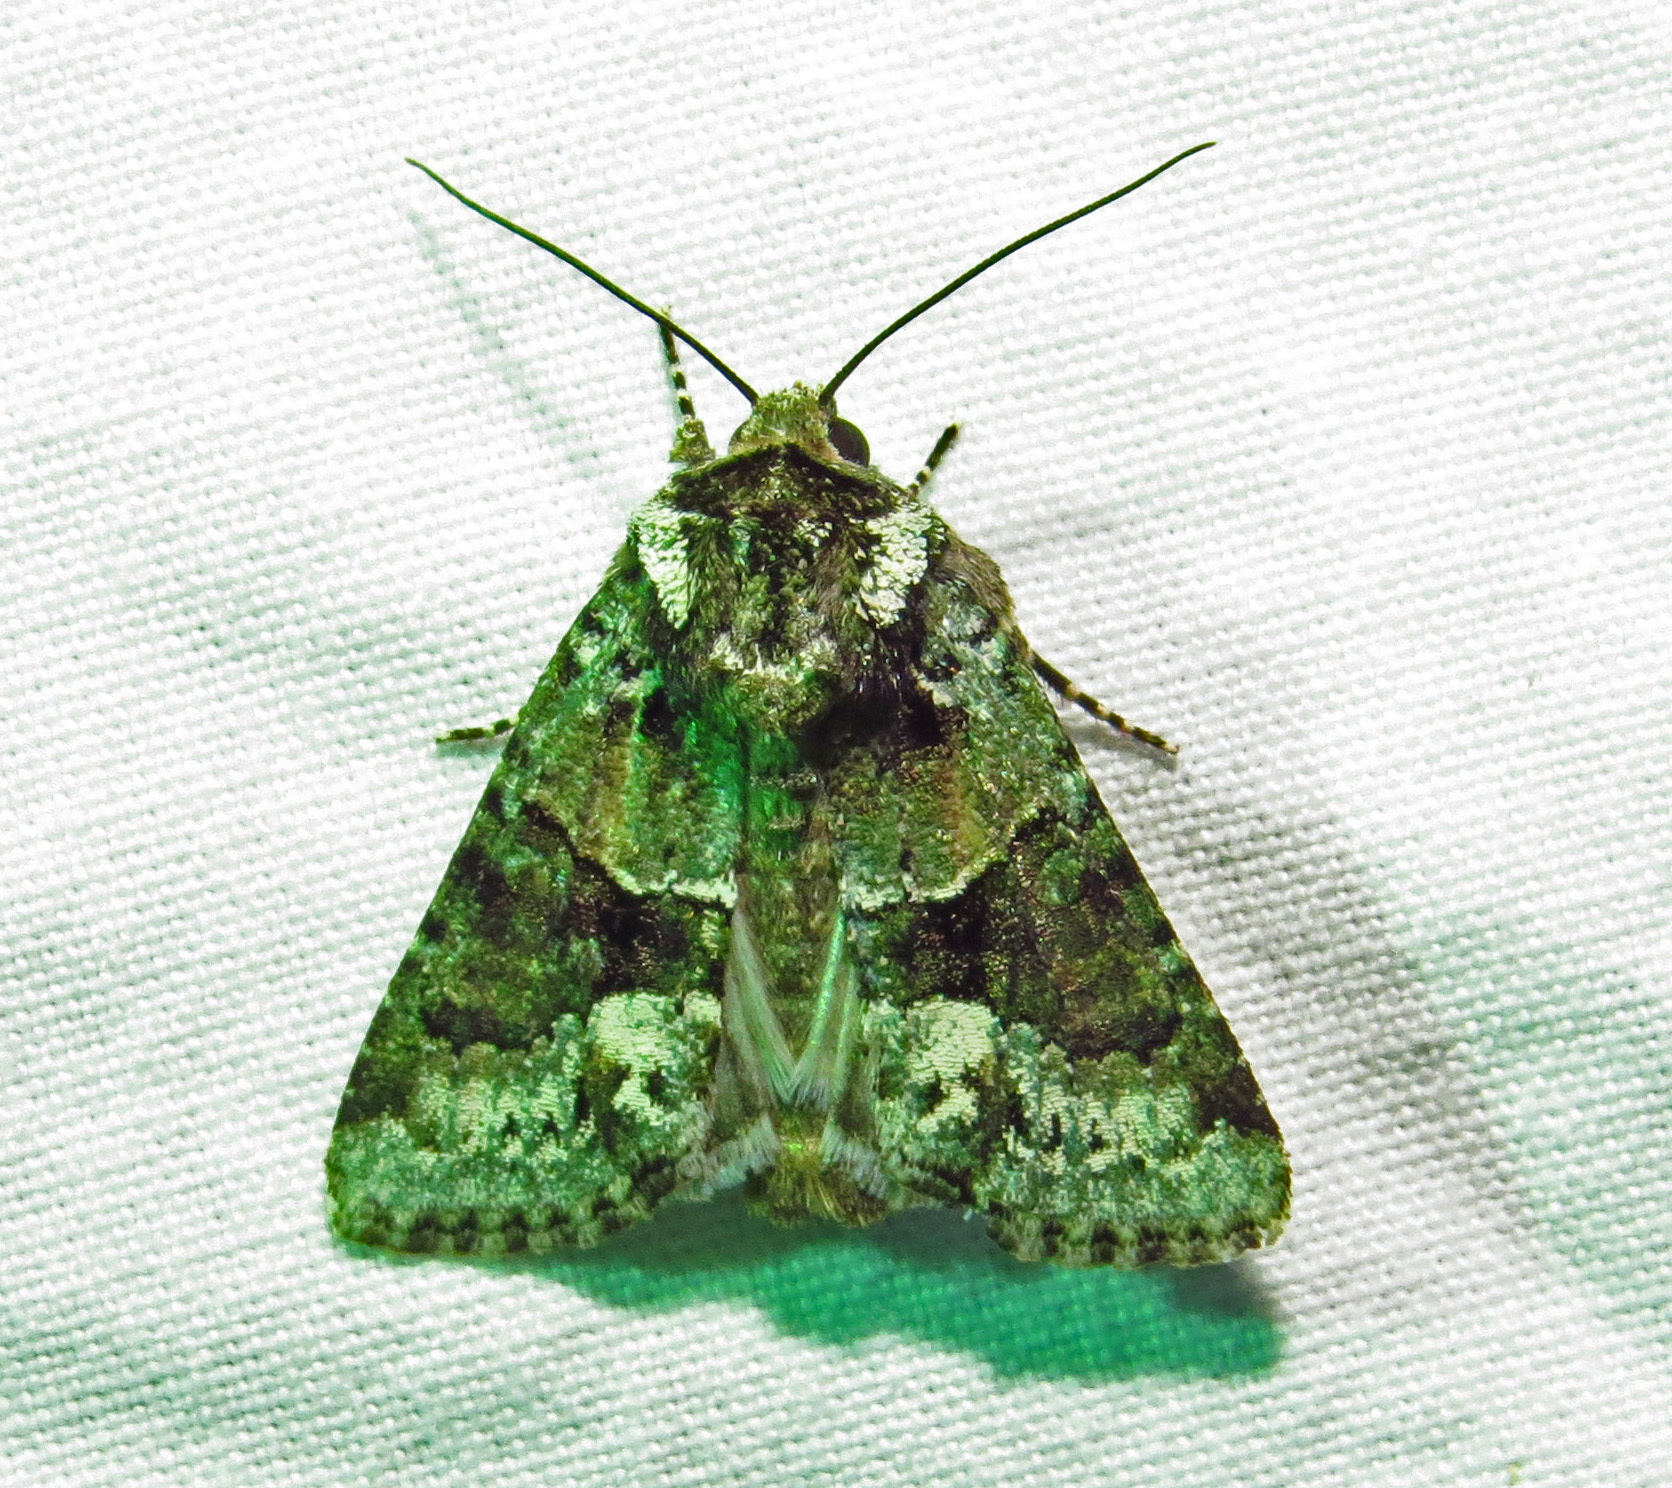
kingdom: Animalia
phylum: Arthropoda
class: Insecta
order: Lepidoptera
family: Noctuidae
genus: Lacinipolia
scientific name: Lacinipolia explicata
